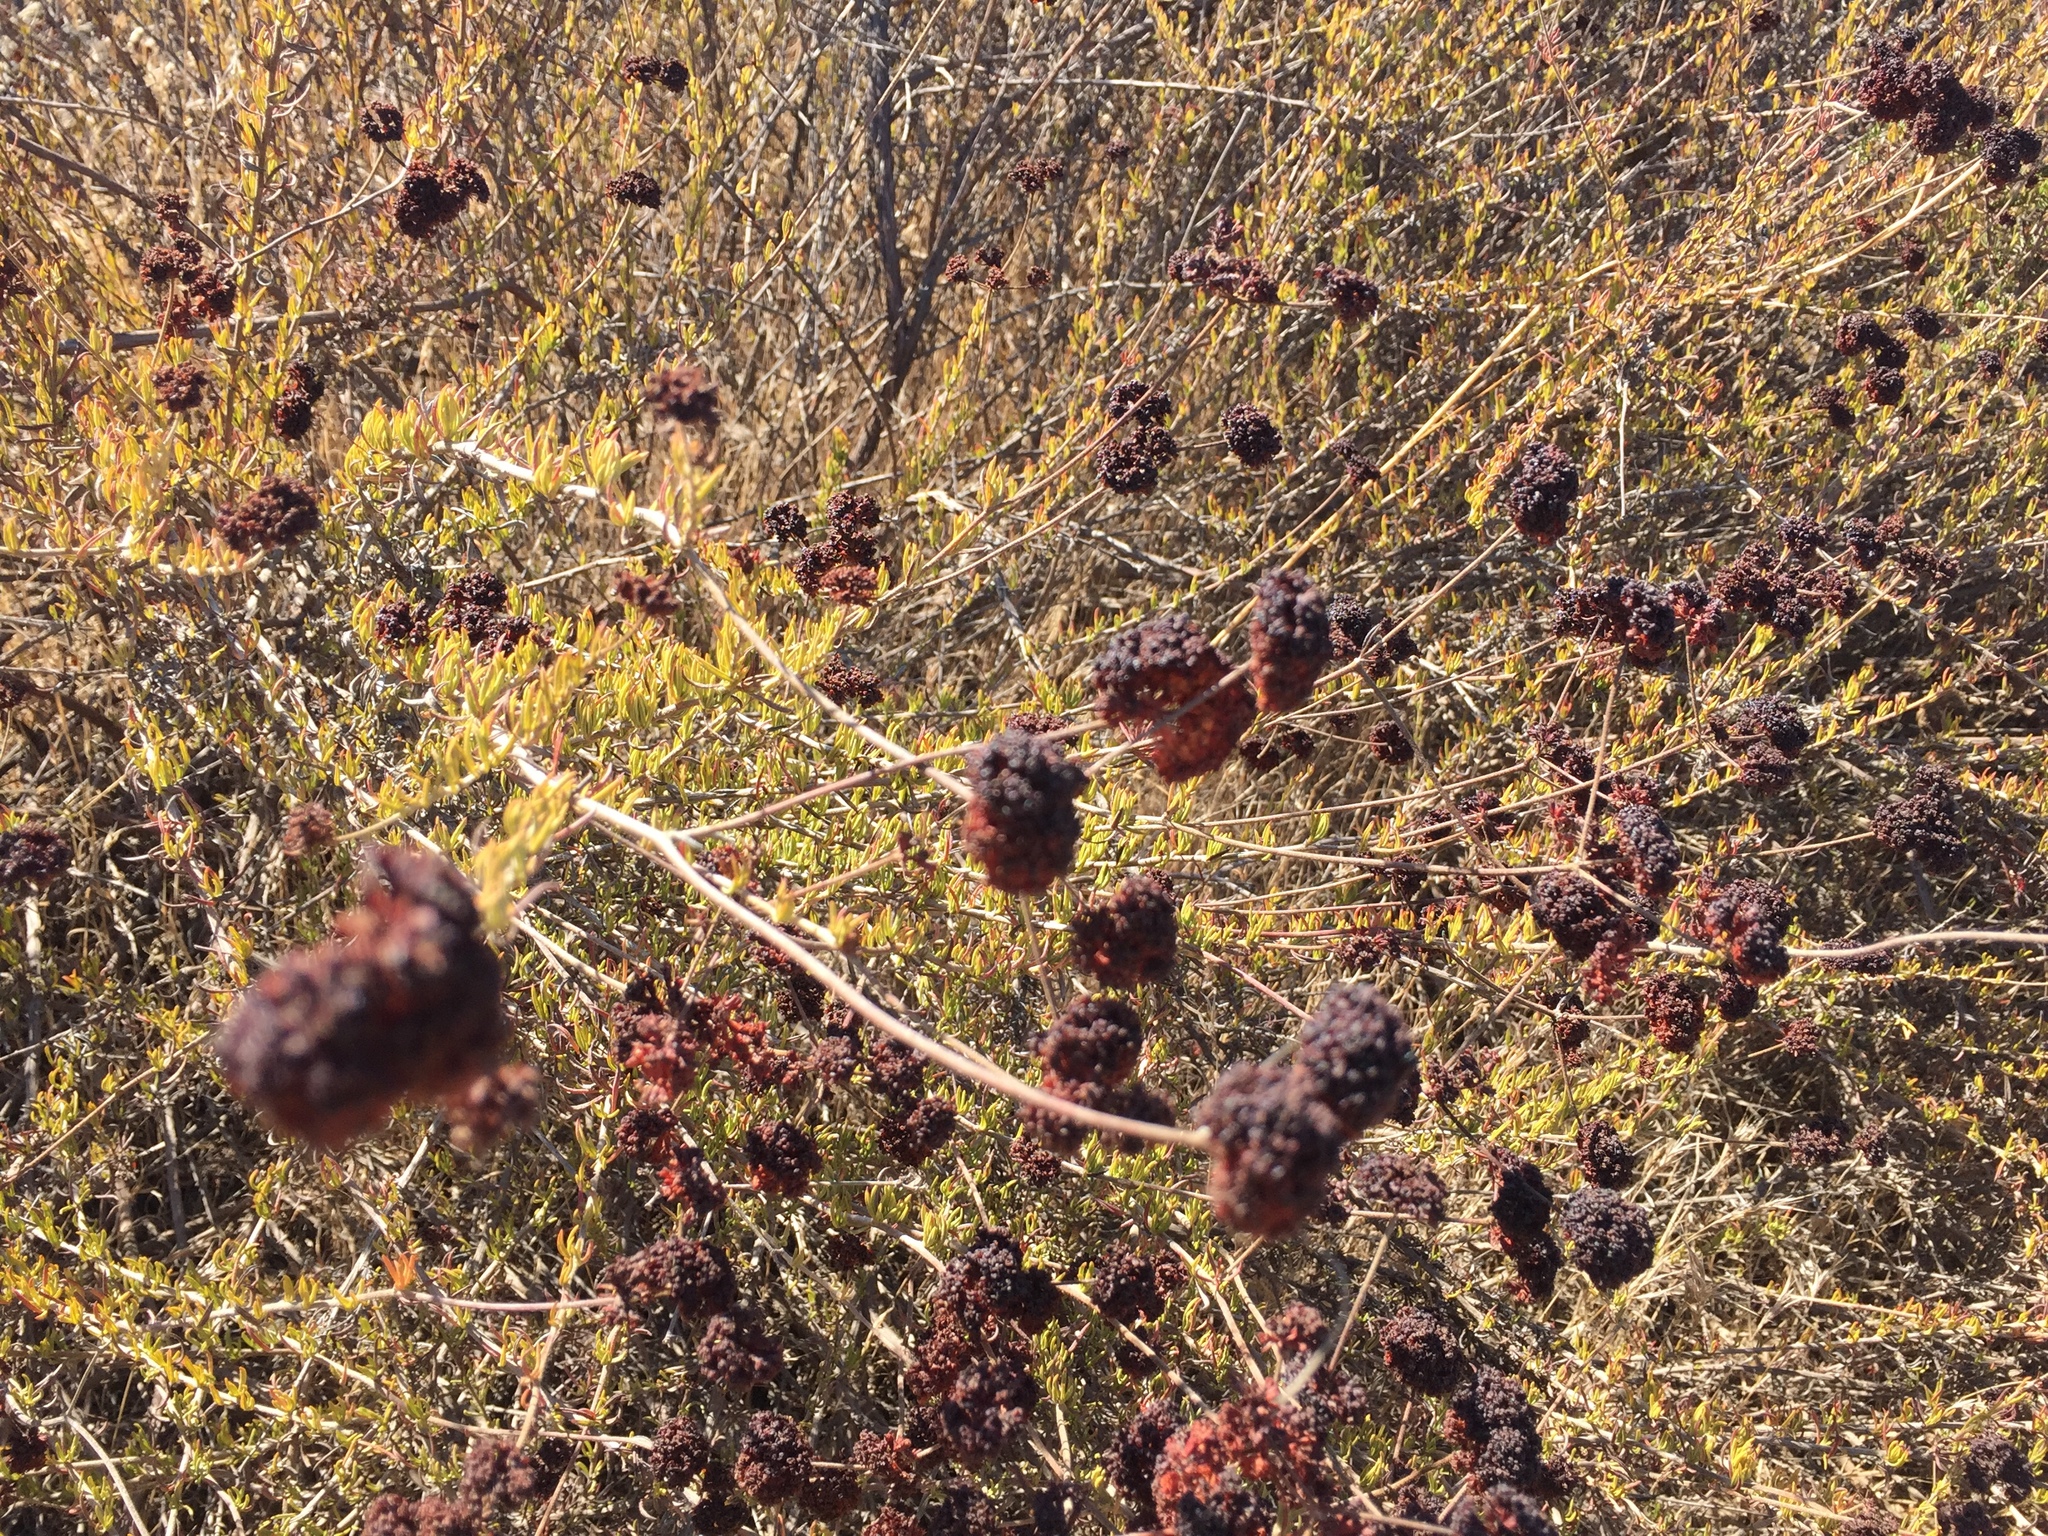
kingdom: Plantae
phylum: Tracheophyta
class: Magnoliopsida
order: Caryophyllales
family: Polygonaceae
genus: Eriogonum
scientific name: Eriogonum fasciculatum
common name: California wild buckwheat
